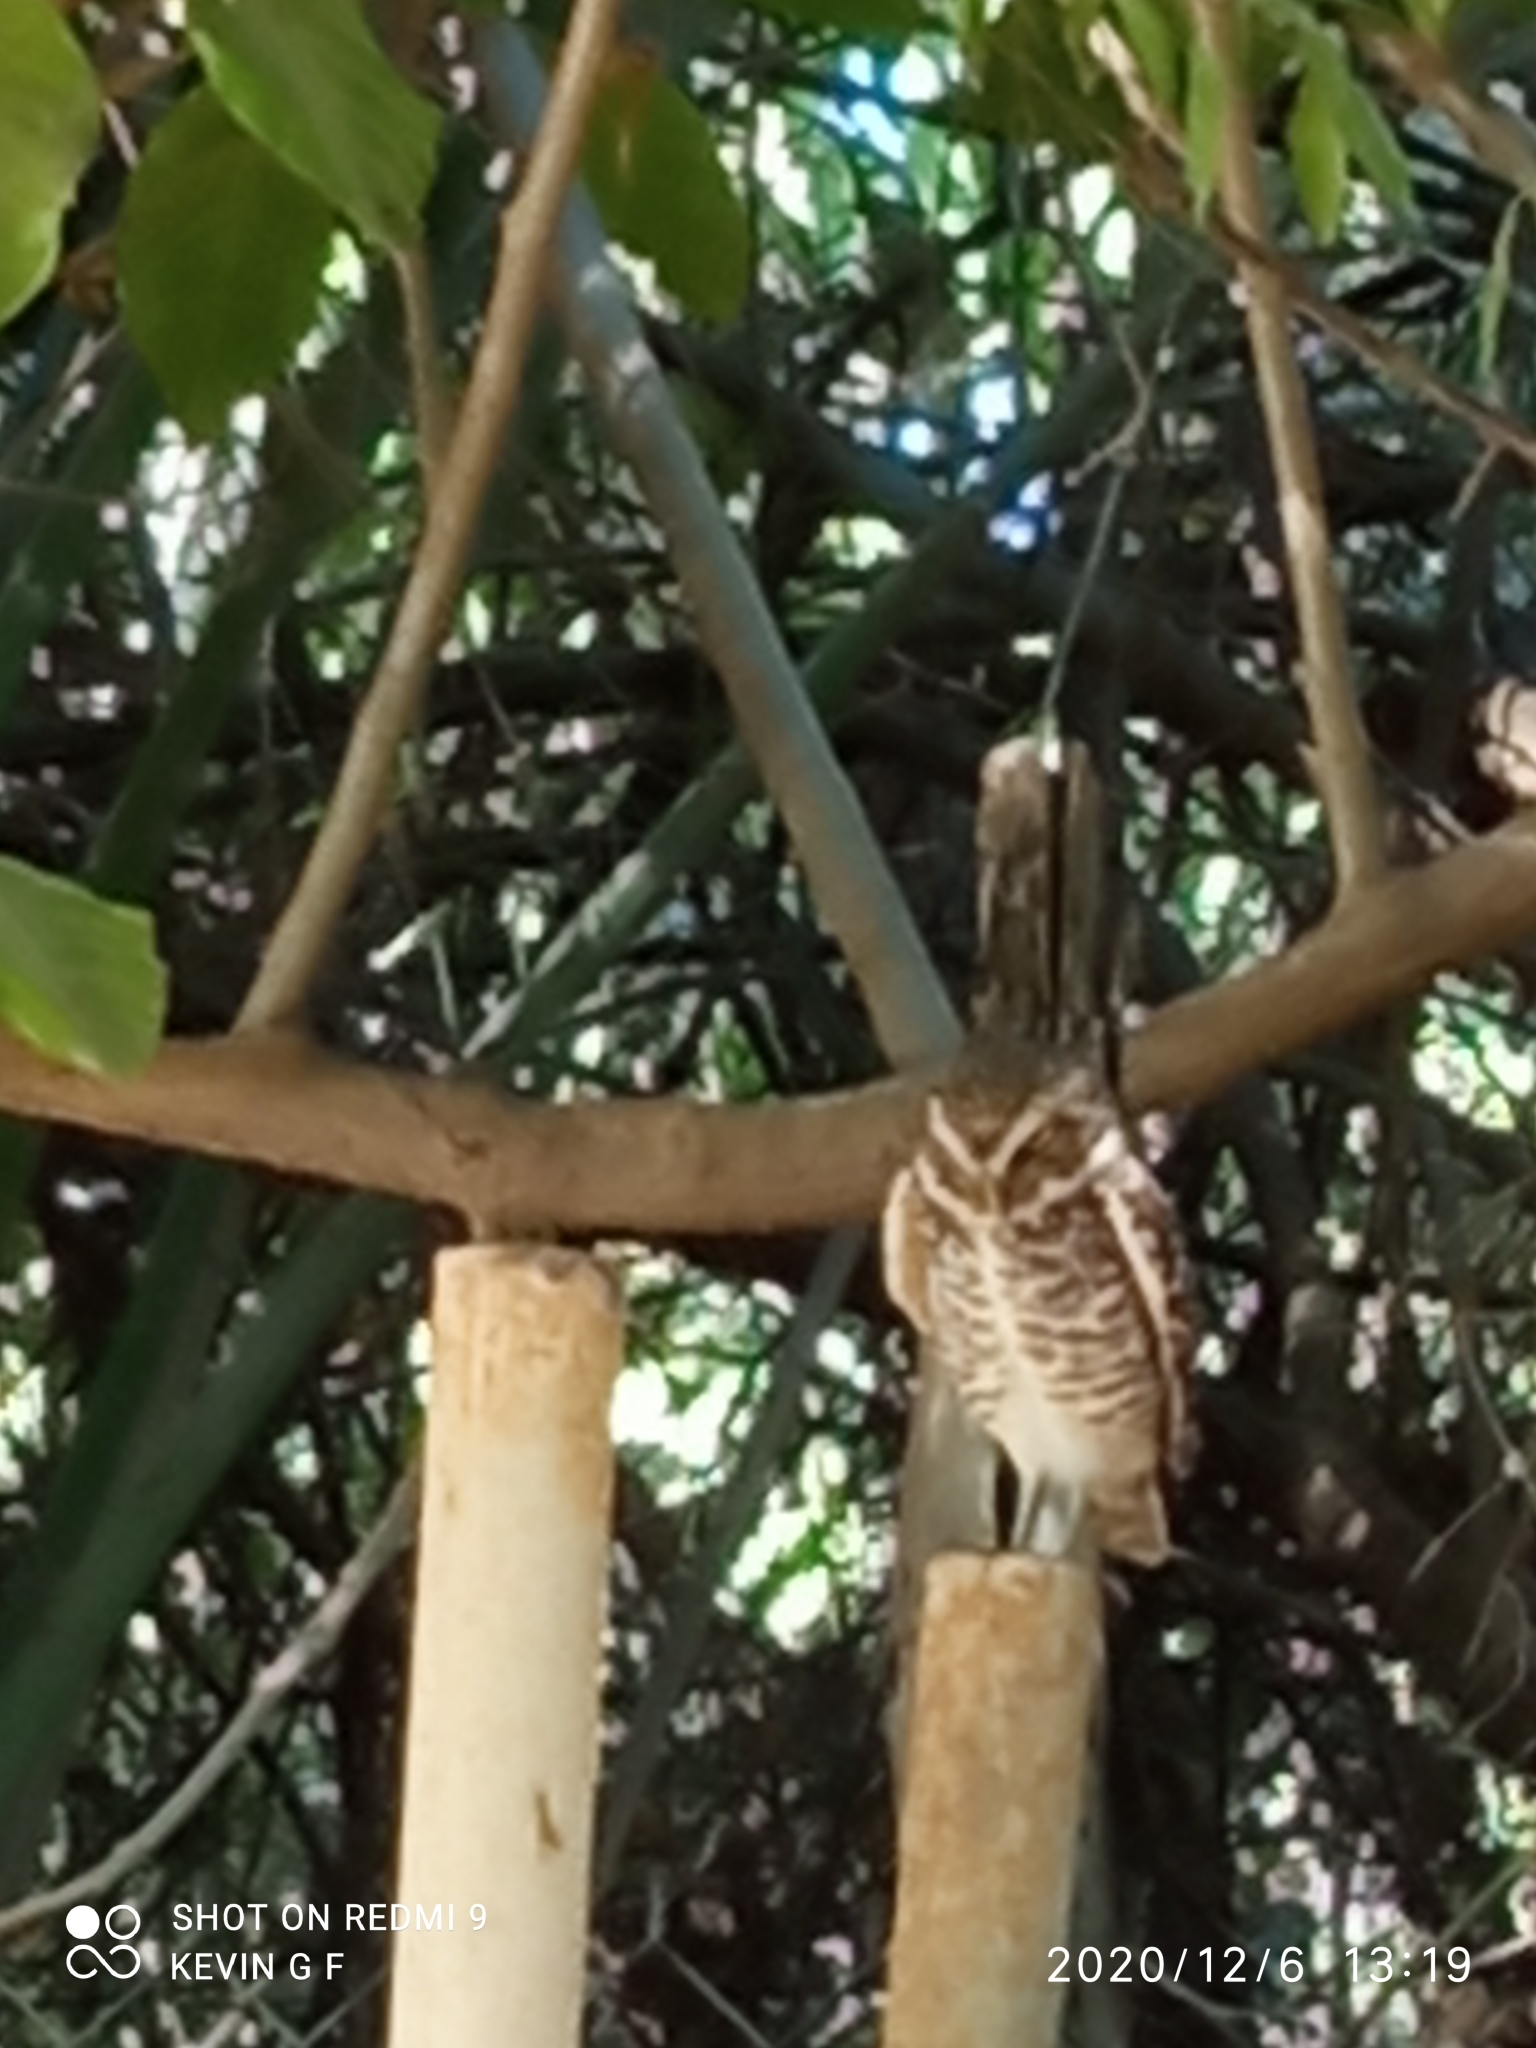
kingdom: Animalia
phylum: Chordata
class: Aves
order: Strigiformes
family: Strigidae
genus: Athene
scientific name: Athene cunicularia
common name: Burrowing owl
